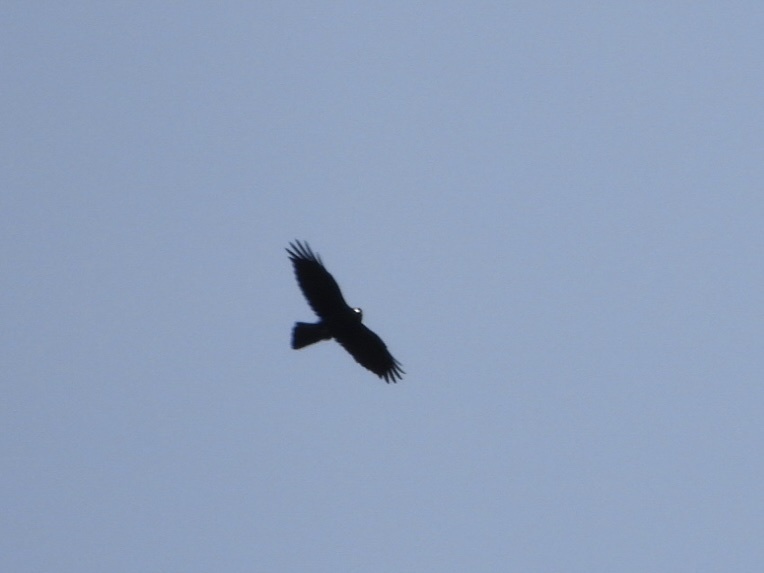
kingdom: Animalia
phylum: Chordata
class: Aves
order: Passeriformes
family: Corvidae
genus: Corvus
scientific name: Corvus corax
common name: Common raven
